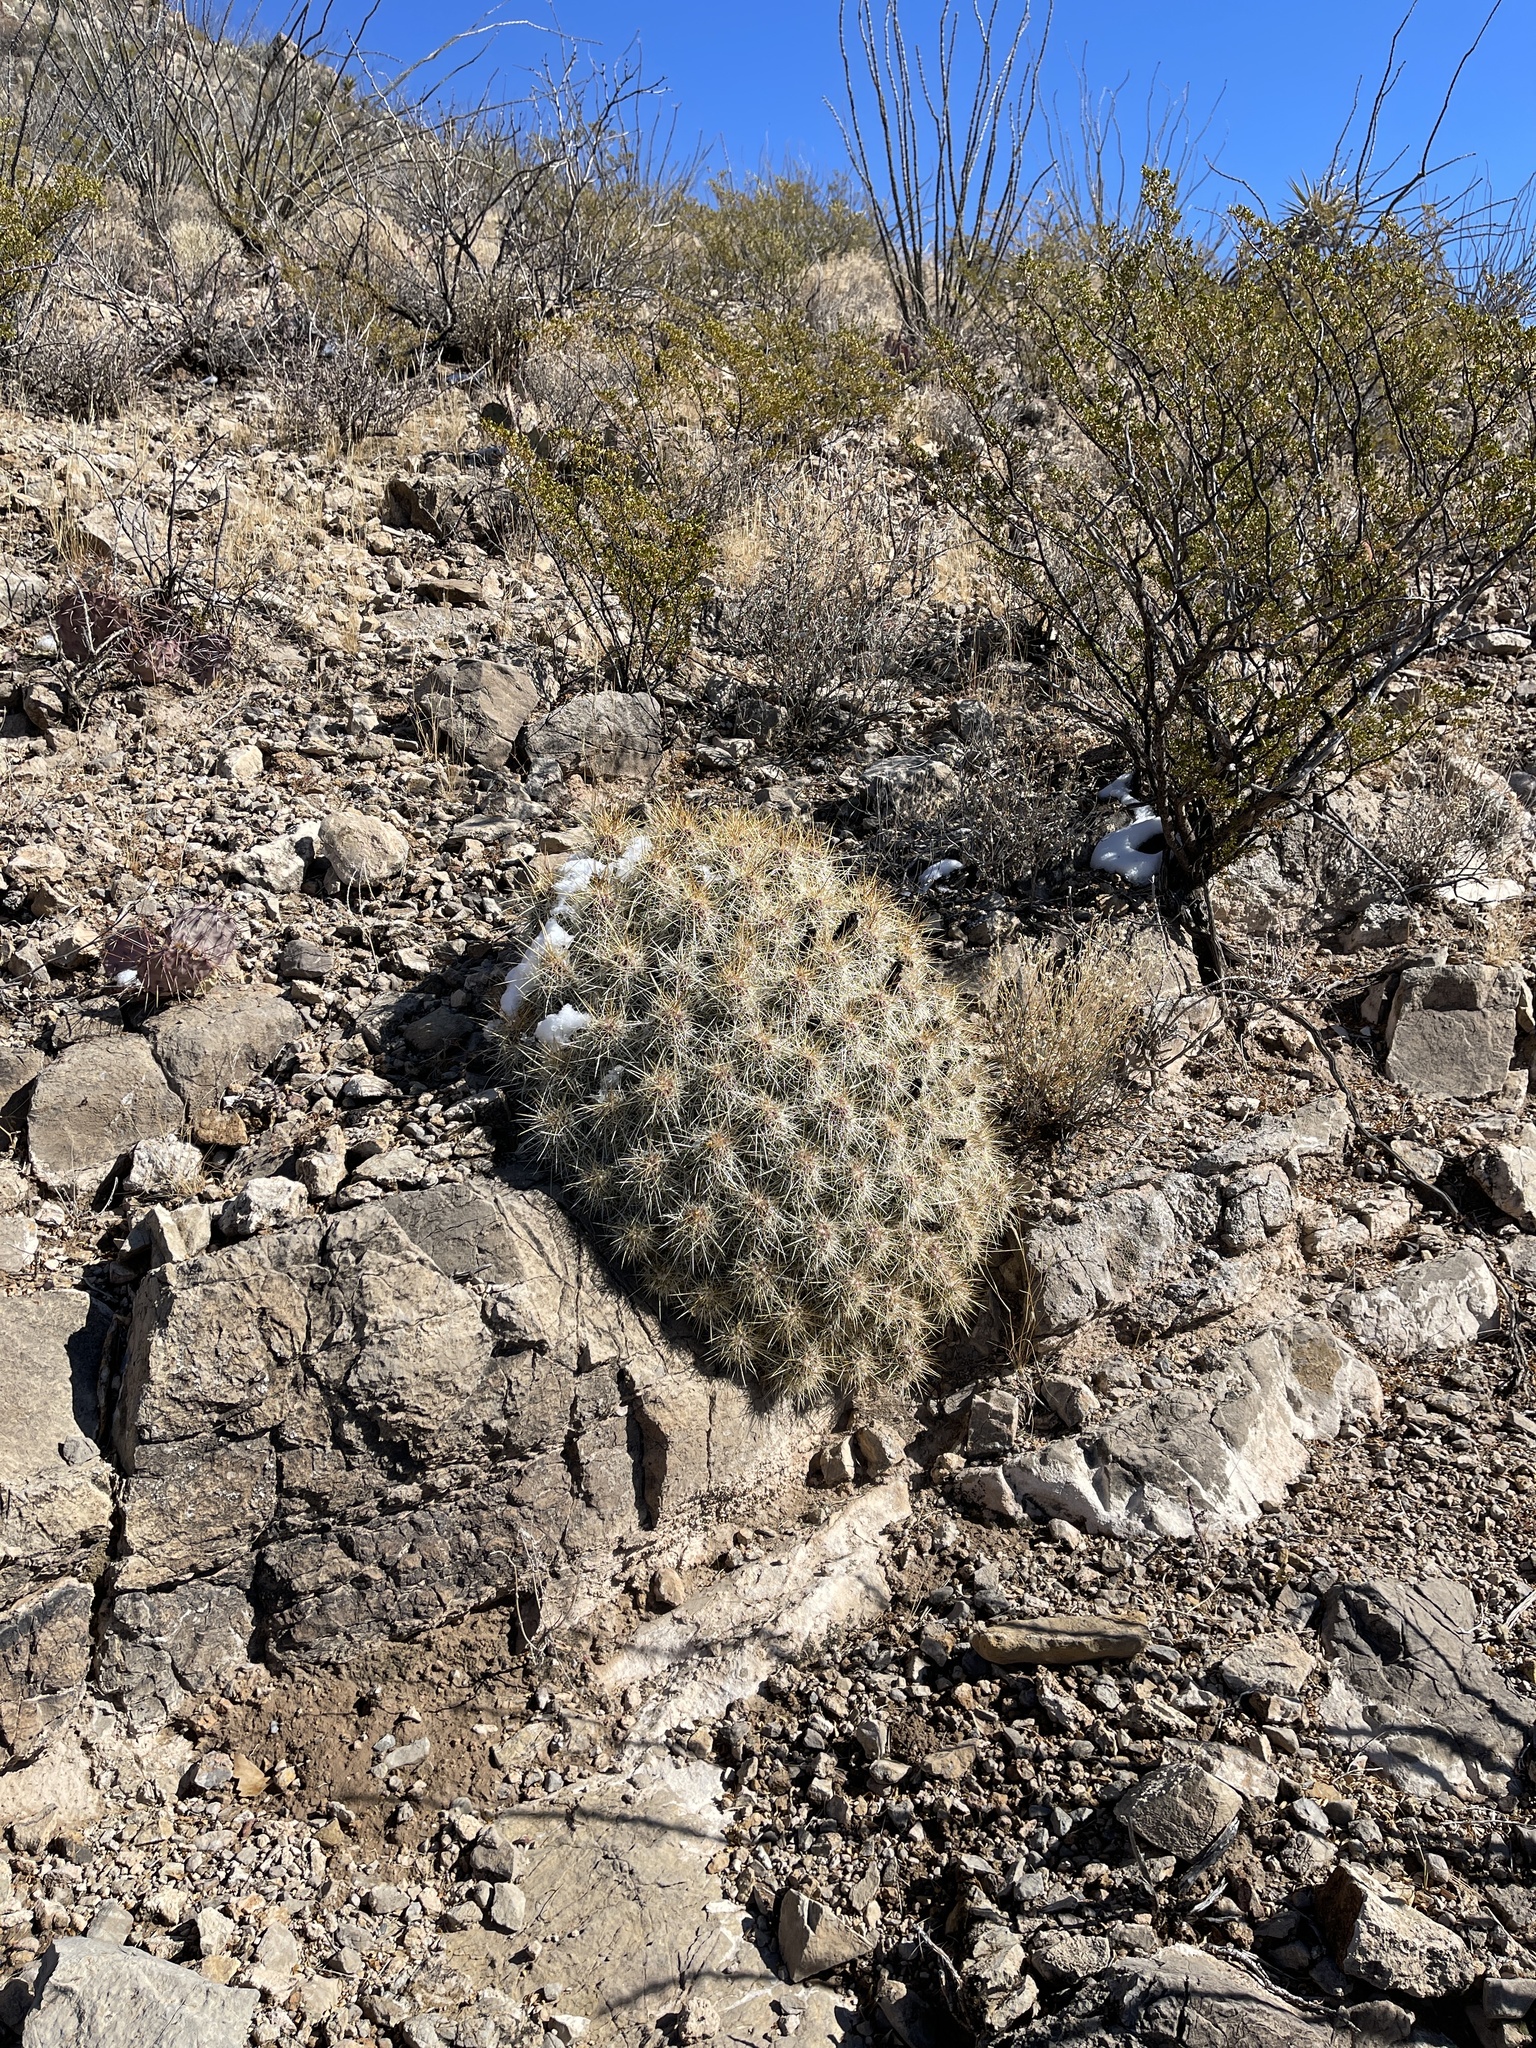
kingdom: Plantae
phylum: Tracheophyta
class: Magnoliopsida
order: Caryophyllales
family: Cactaceae
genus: Echinocereus
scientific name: Echinocereus stramineus
